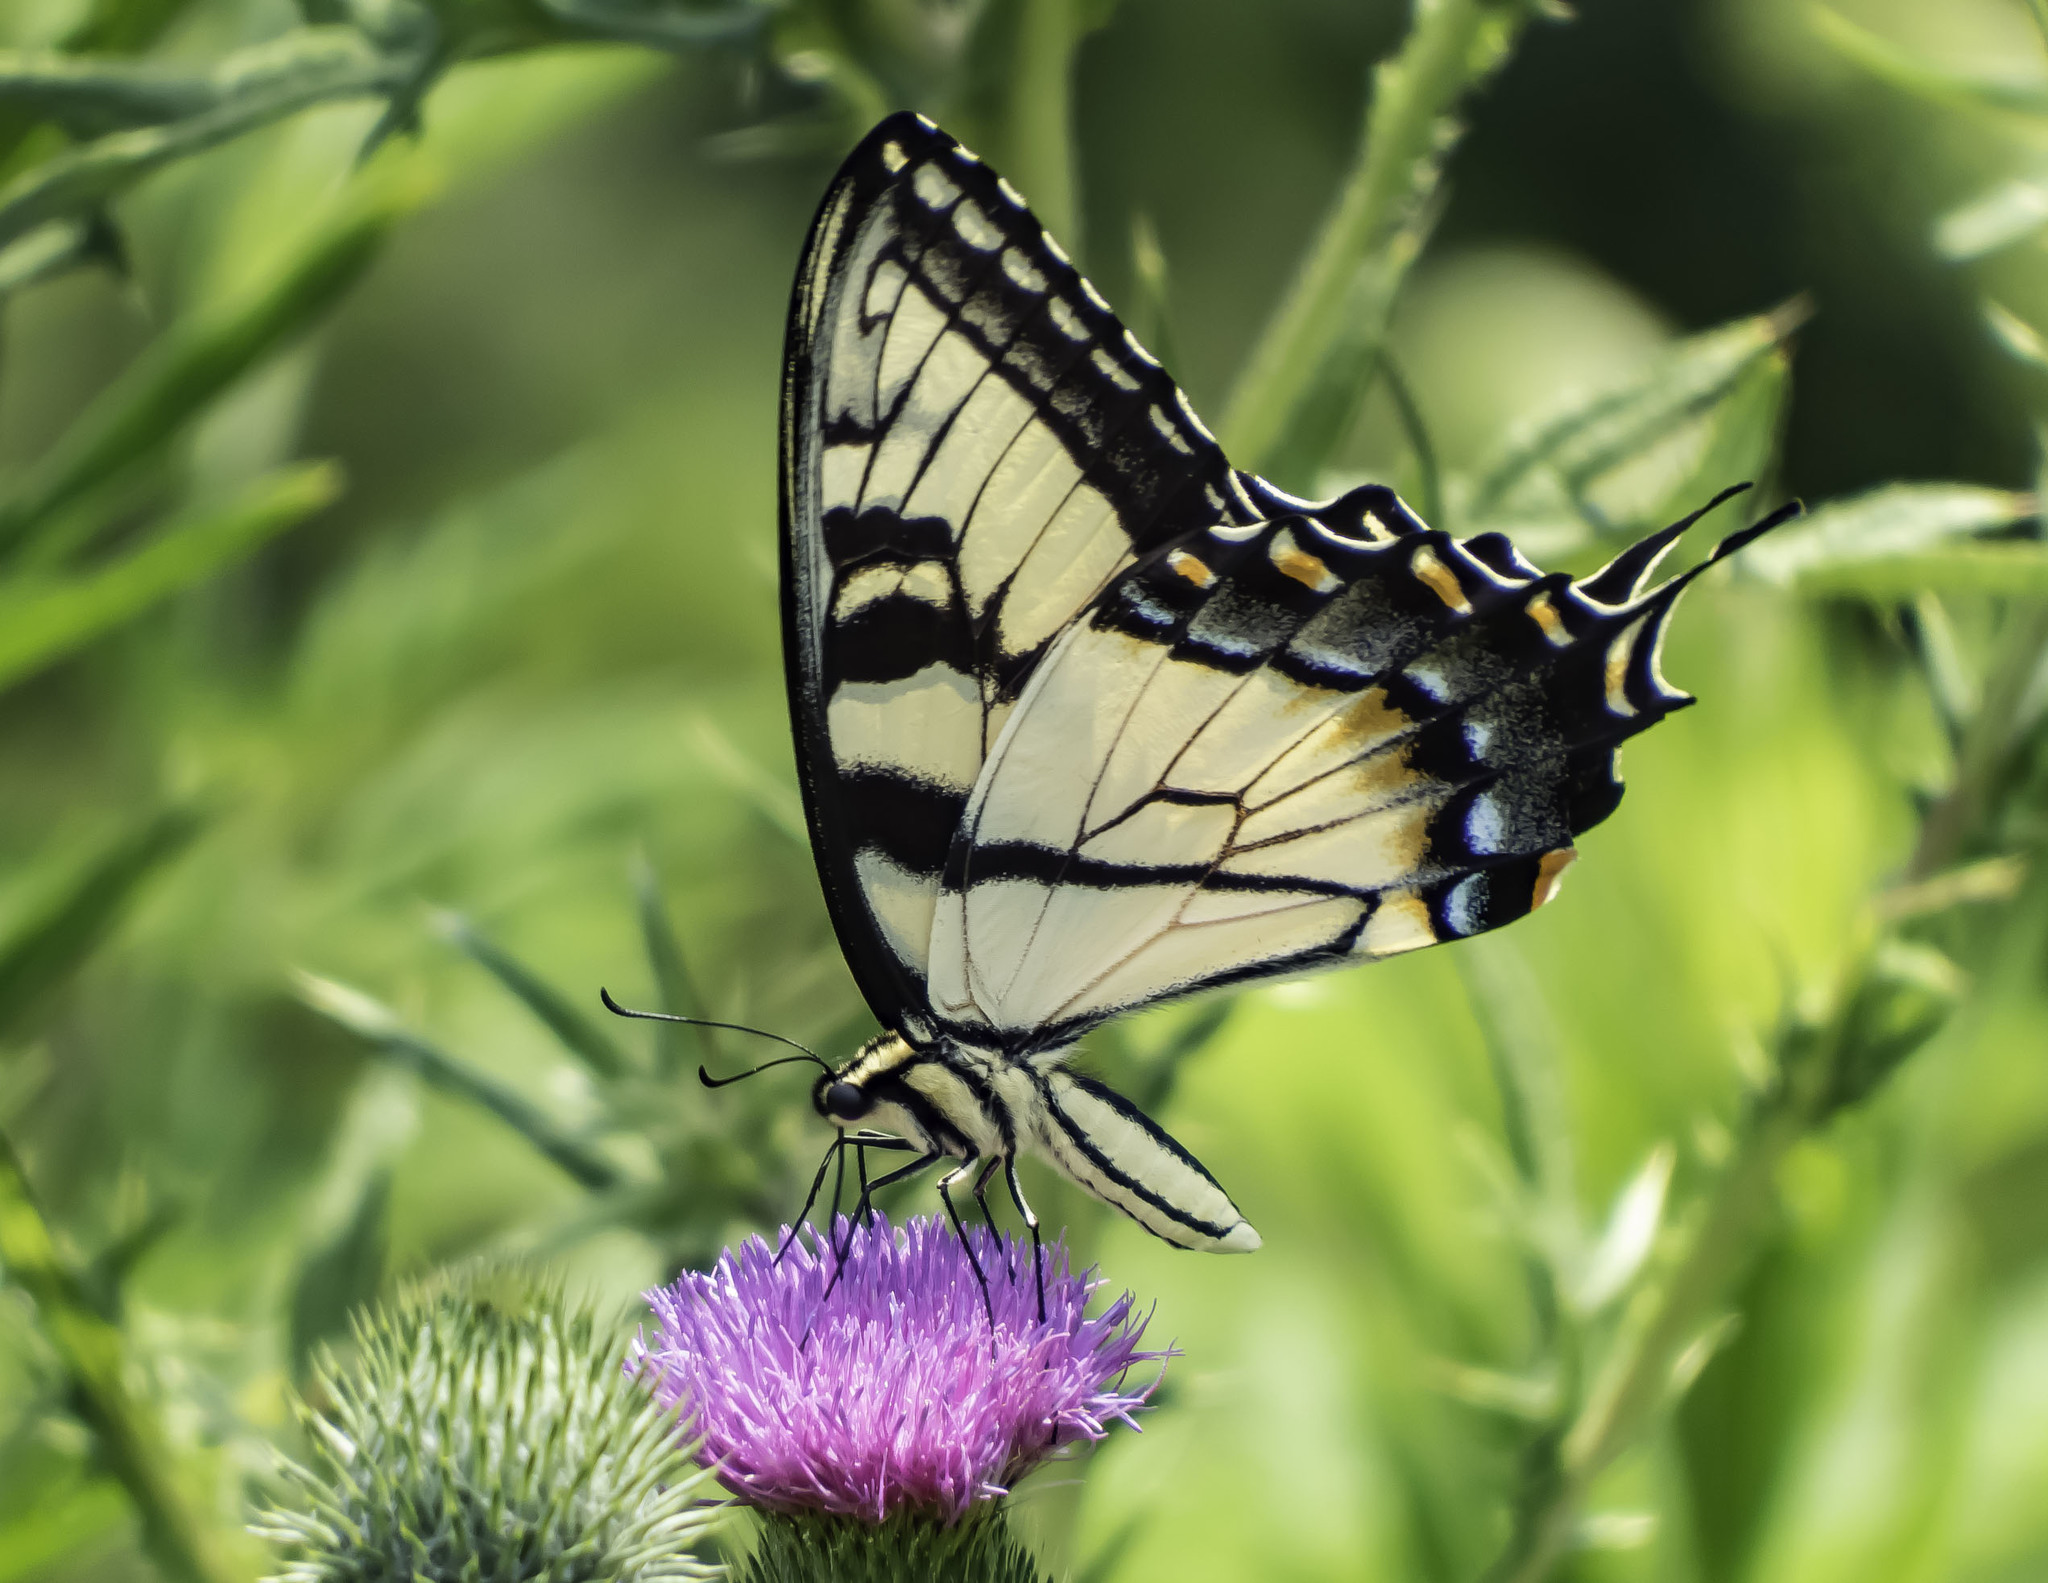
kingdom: Animalia
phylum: Arthropoda
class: Insecta
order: Lepidoptera
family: Papilionidae
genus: Papilio
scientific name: Papilio glaucus
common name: Tiger swallowtail
